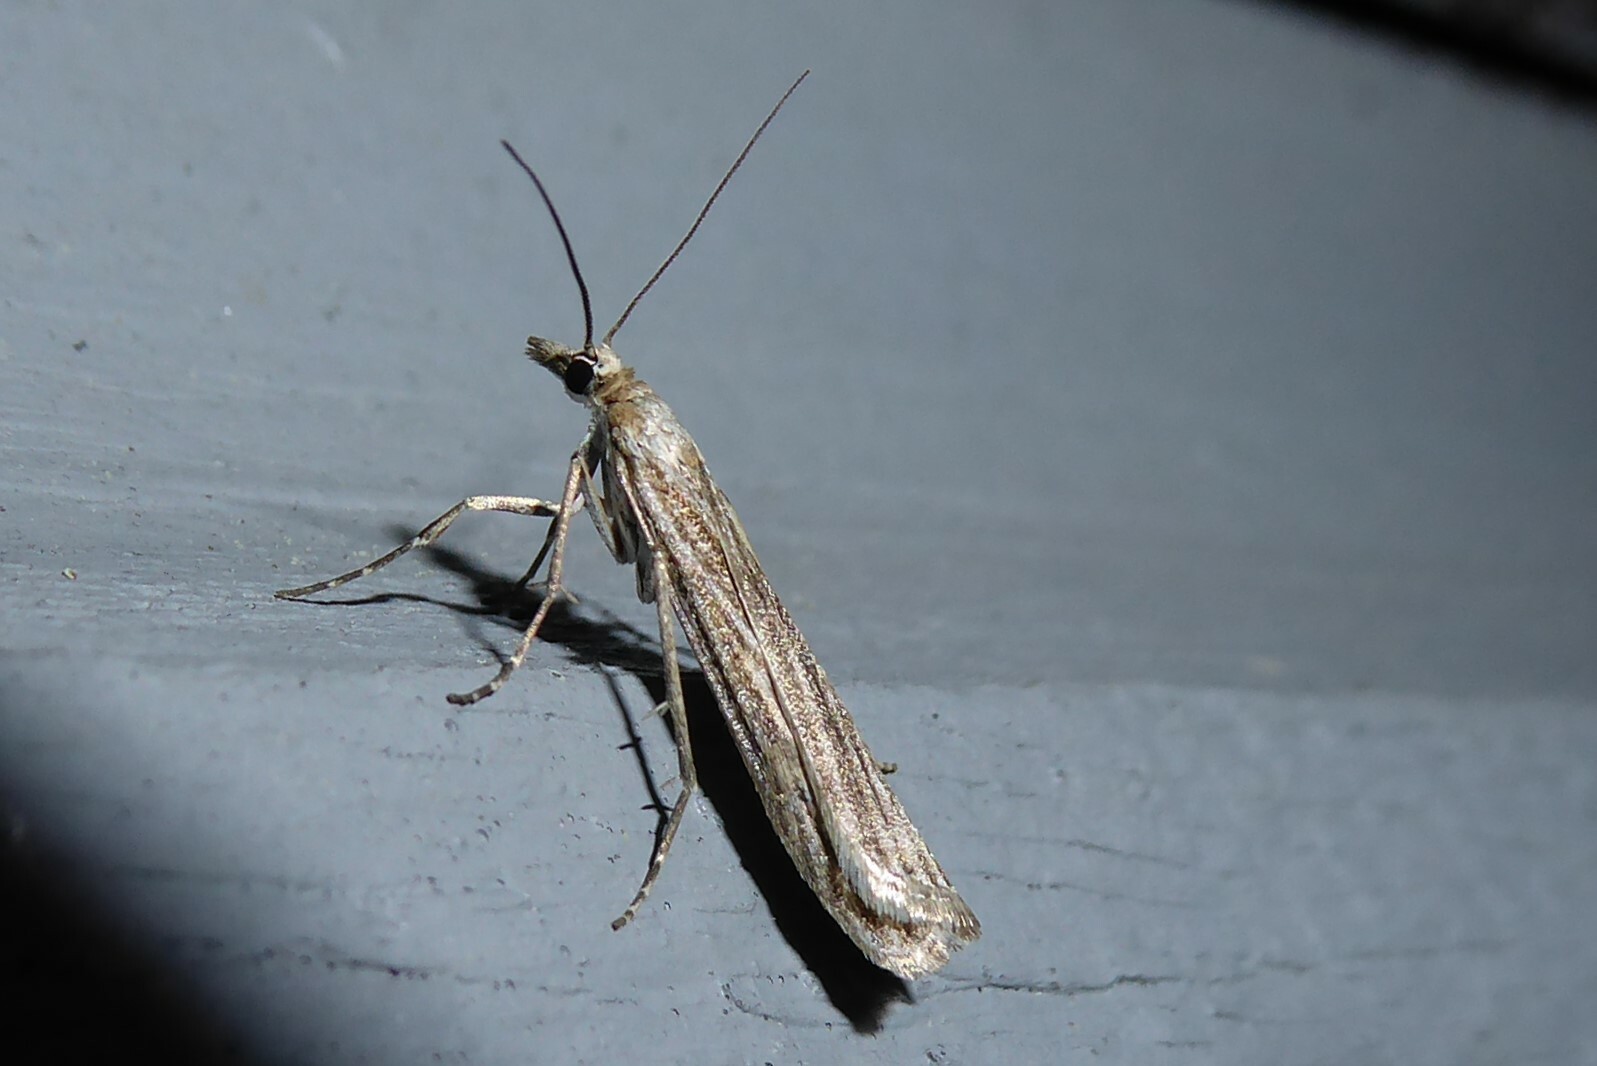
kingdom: Animalia
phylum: Arthropoda
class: Insecta
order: Lepidoptera
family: Crambidae
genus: Eudonia
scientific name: Eudonia atmogramma
